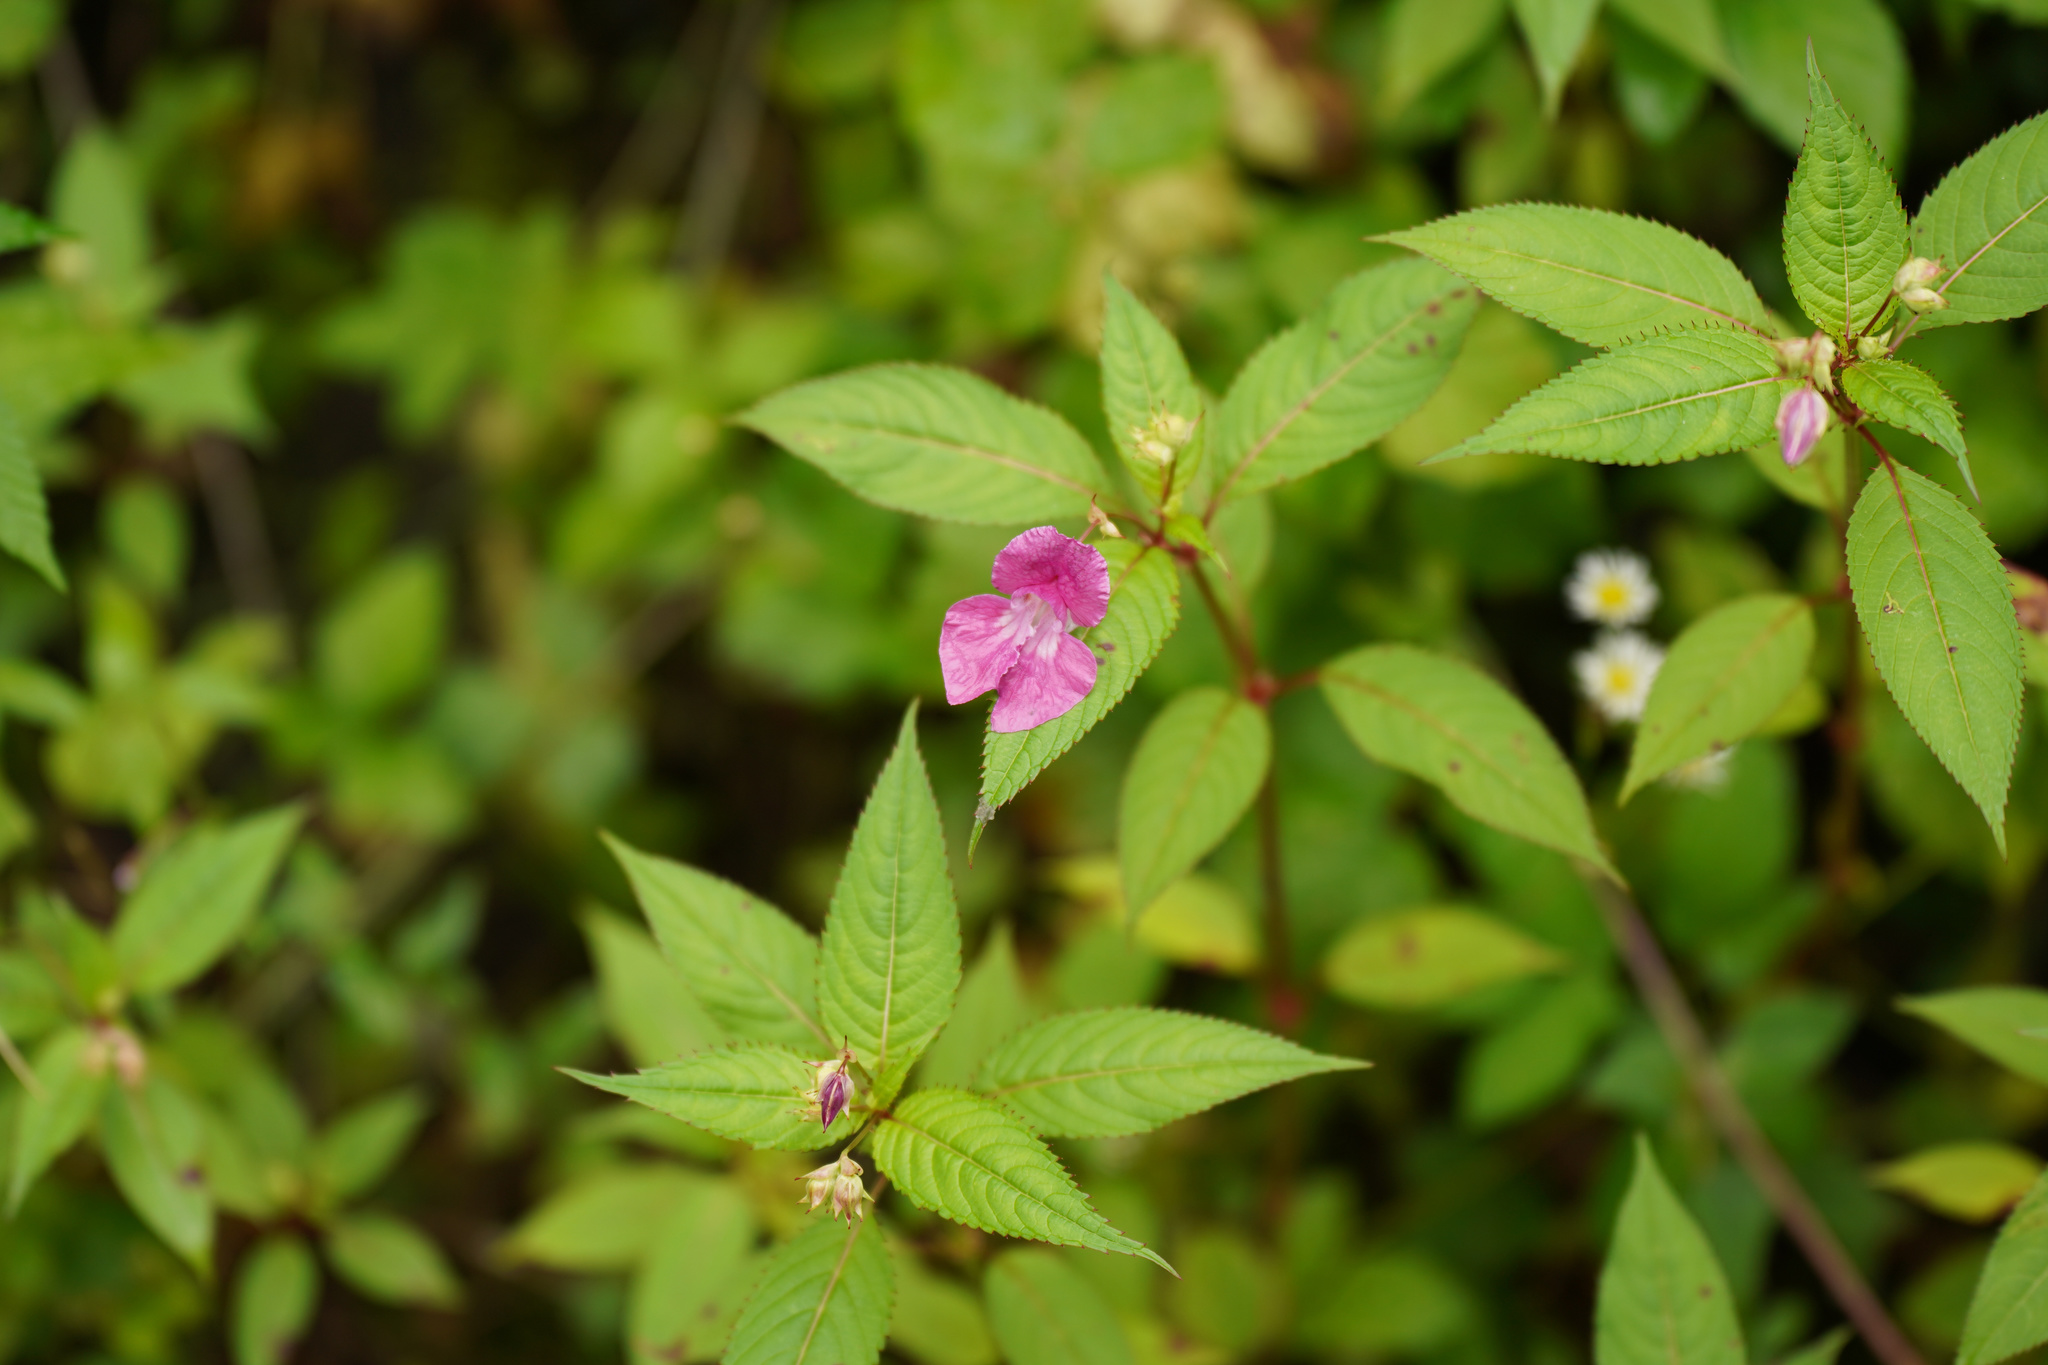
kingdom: Plantae
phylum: Tracheophyta
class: Magnoliopsida
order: Ericales
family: Balsaminaceae
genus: Impatiens
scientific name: Impatiens glandulifera
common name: Himalayan balsam
